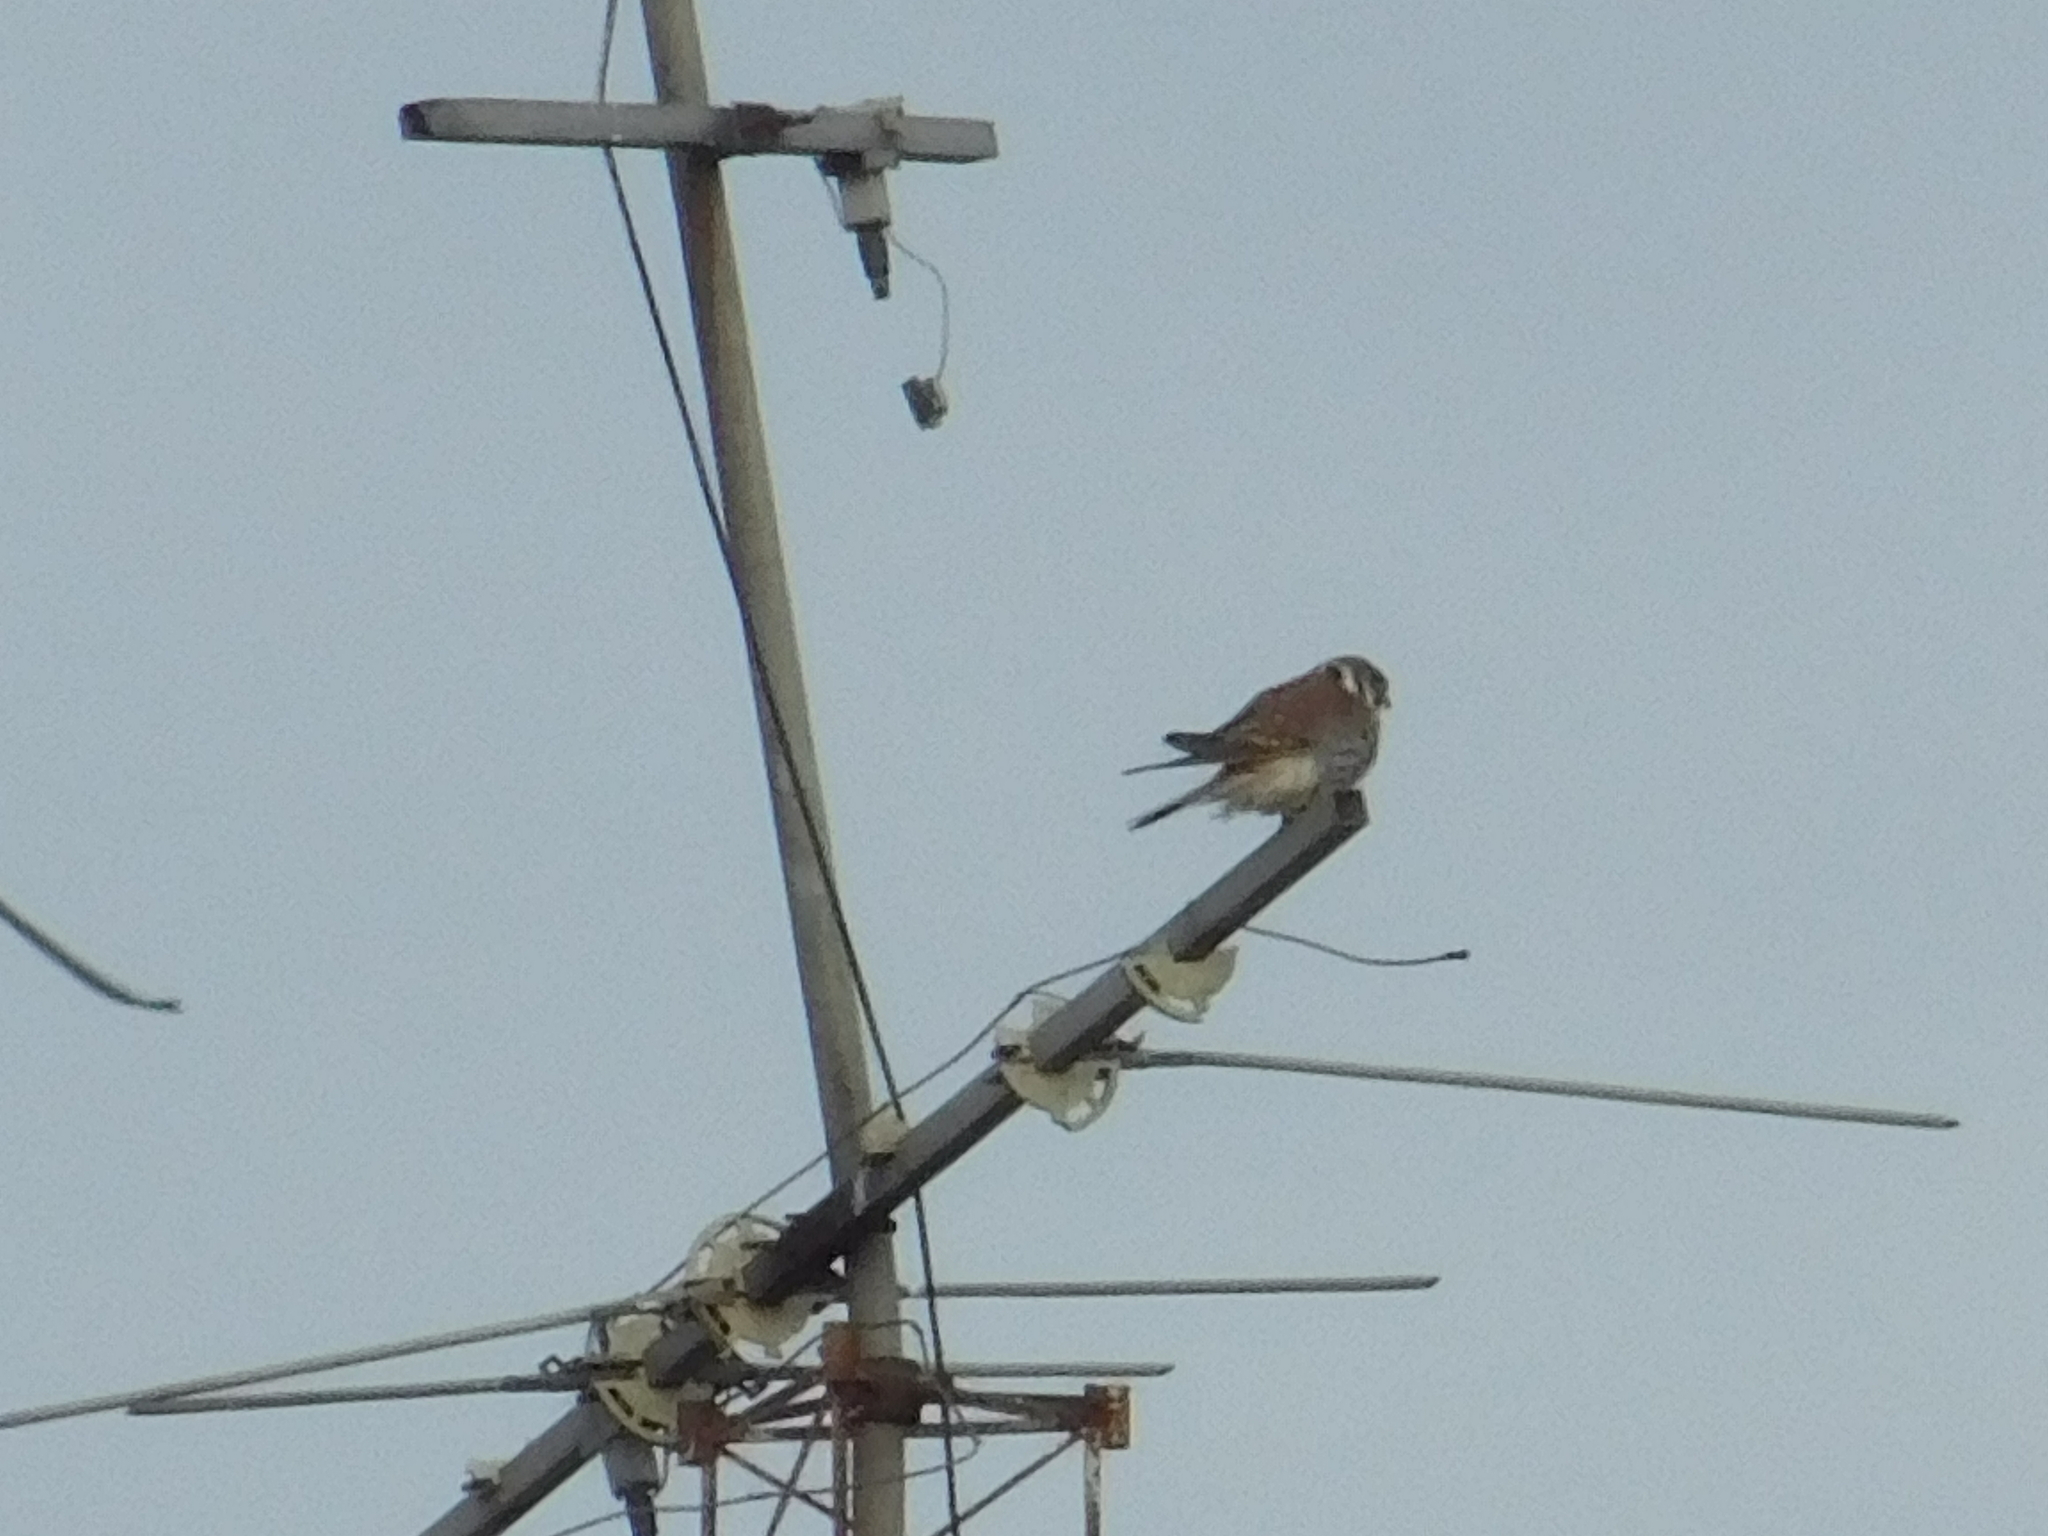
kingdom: Animalia
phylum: Chordata
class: Aves
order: Falconiformes
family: Falconidae
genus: Falco
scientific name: Falco sparverius
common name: American kestrel
